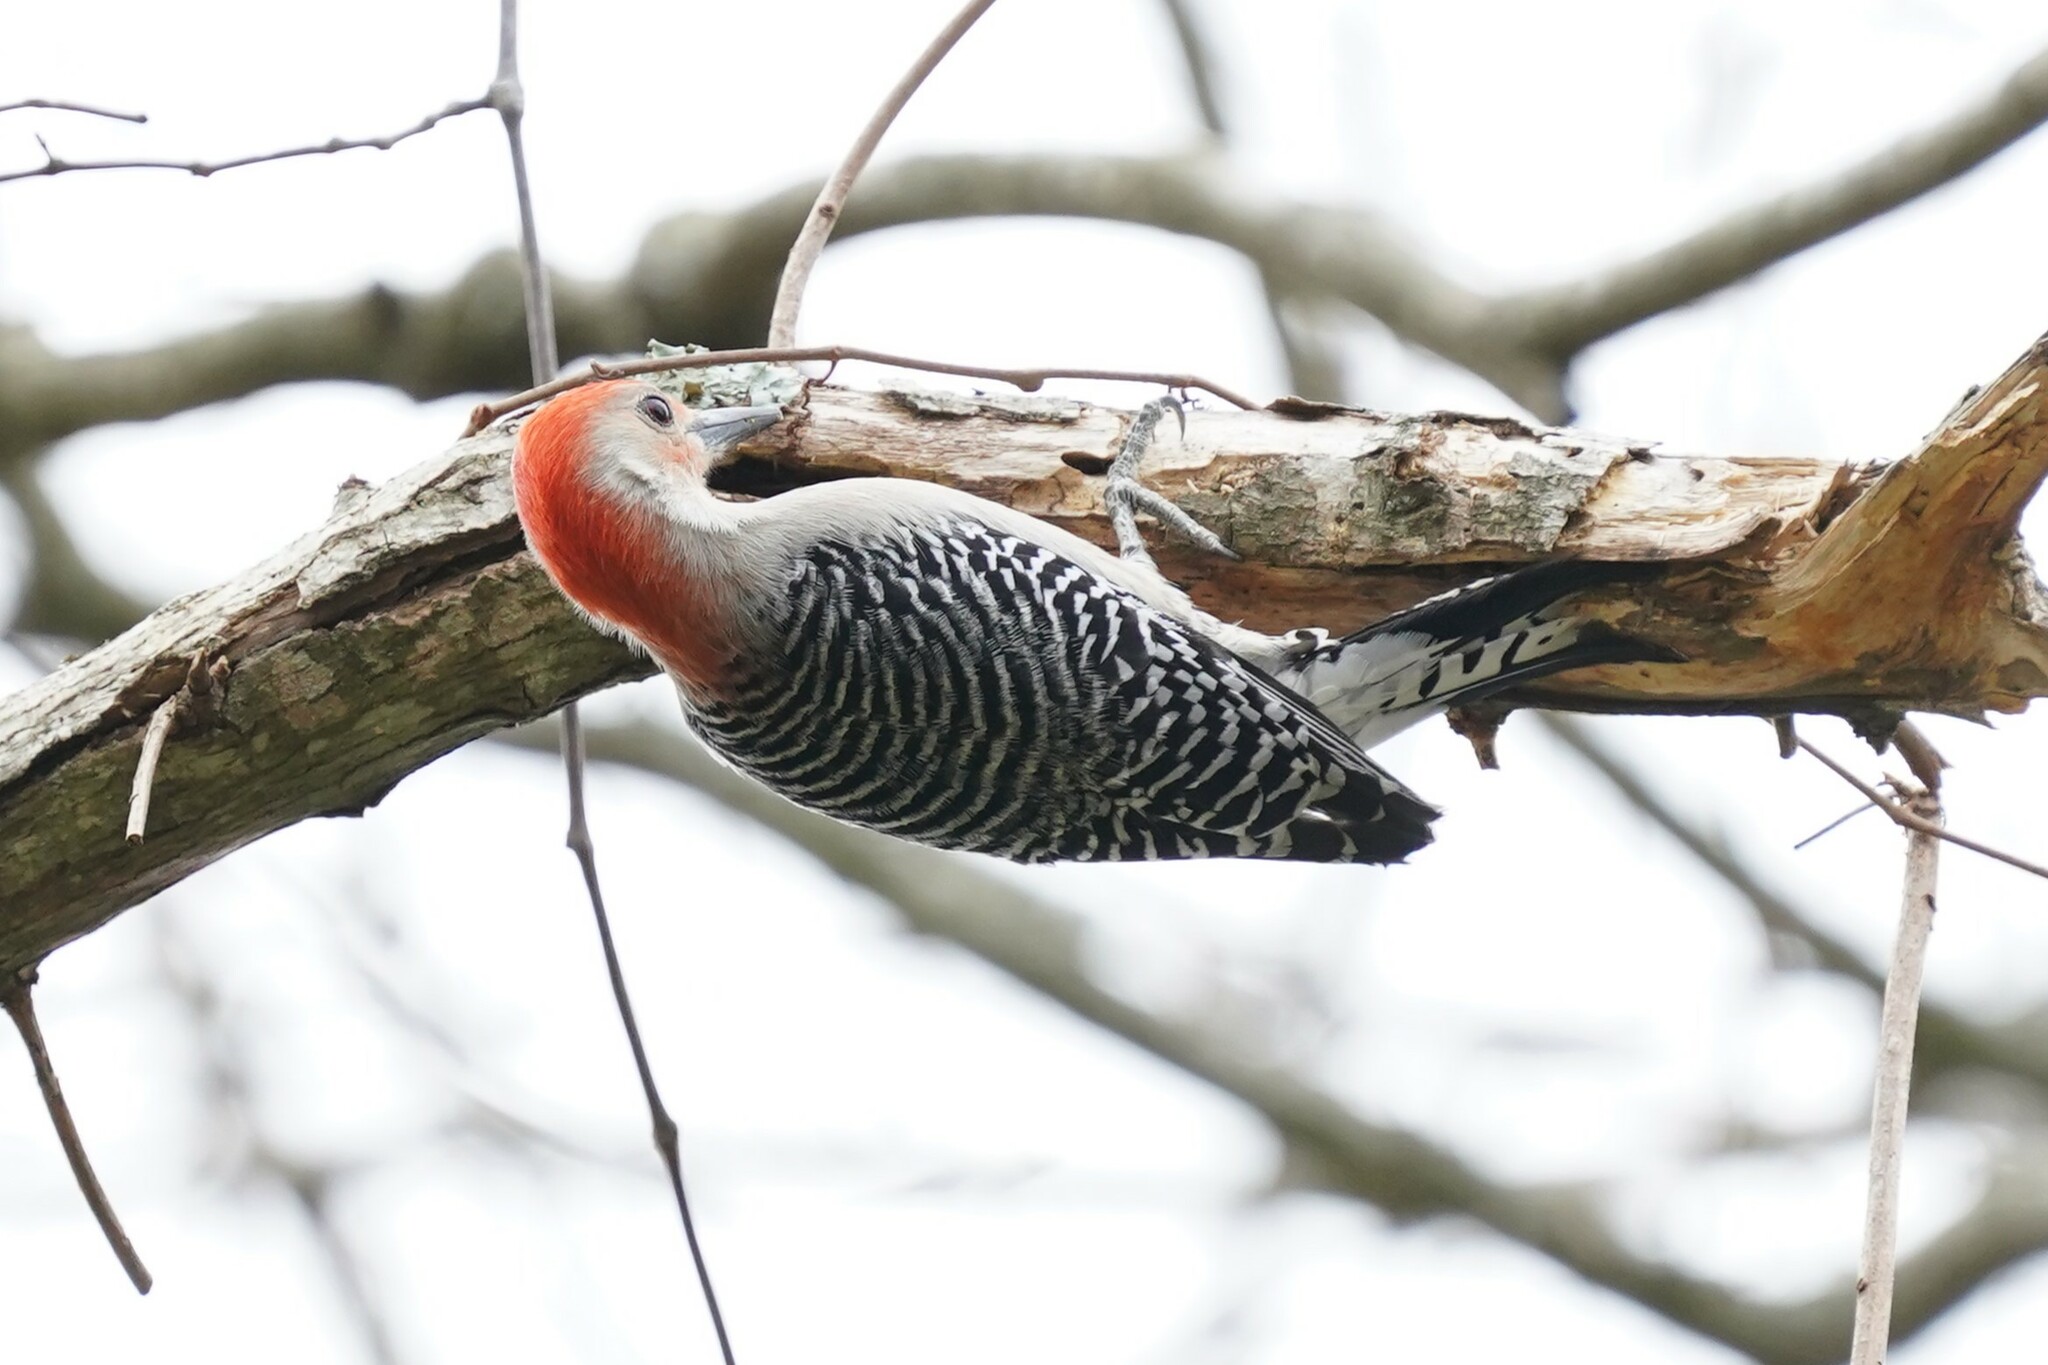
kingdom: Animalia
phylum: Chordata
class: Aves
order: Piciformes
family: Picidae
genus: Melanerpes
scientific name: Melanerpes carolinus
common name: Red-bellied woodpecker
